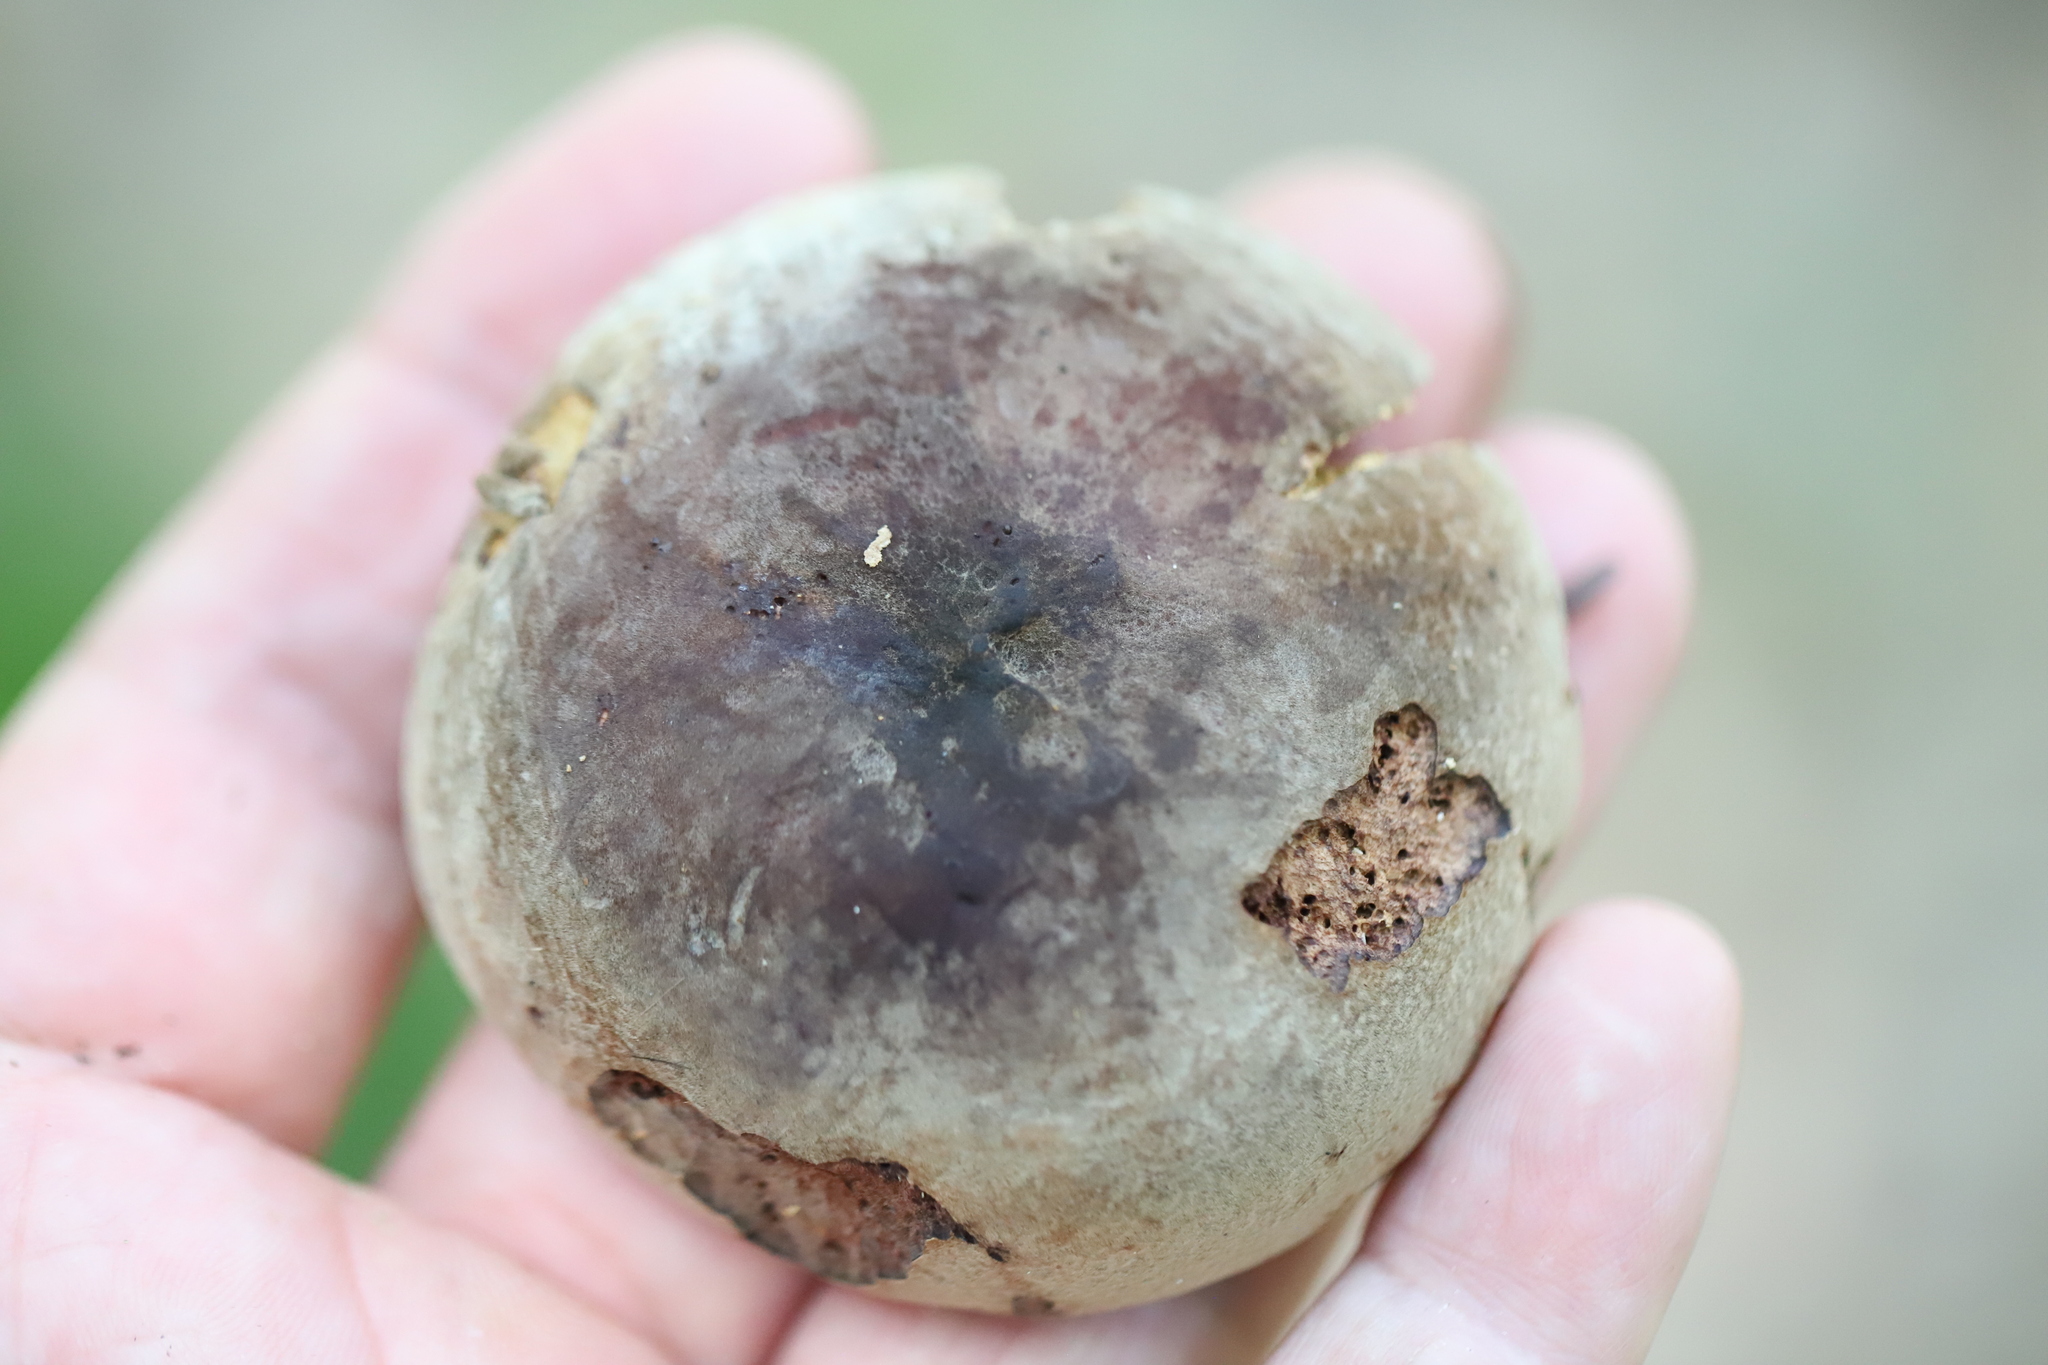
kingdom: Fungi
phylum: Basidiomycota
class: Agaricomycetes
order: Russulales
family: Russulaceae
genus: Lactarius
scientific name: Lactarius corrugis
